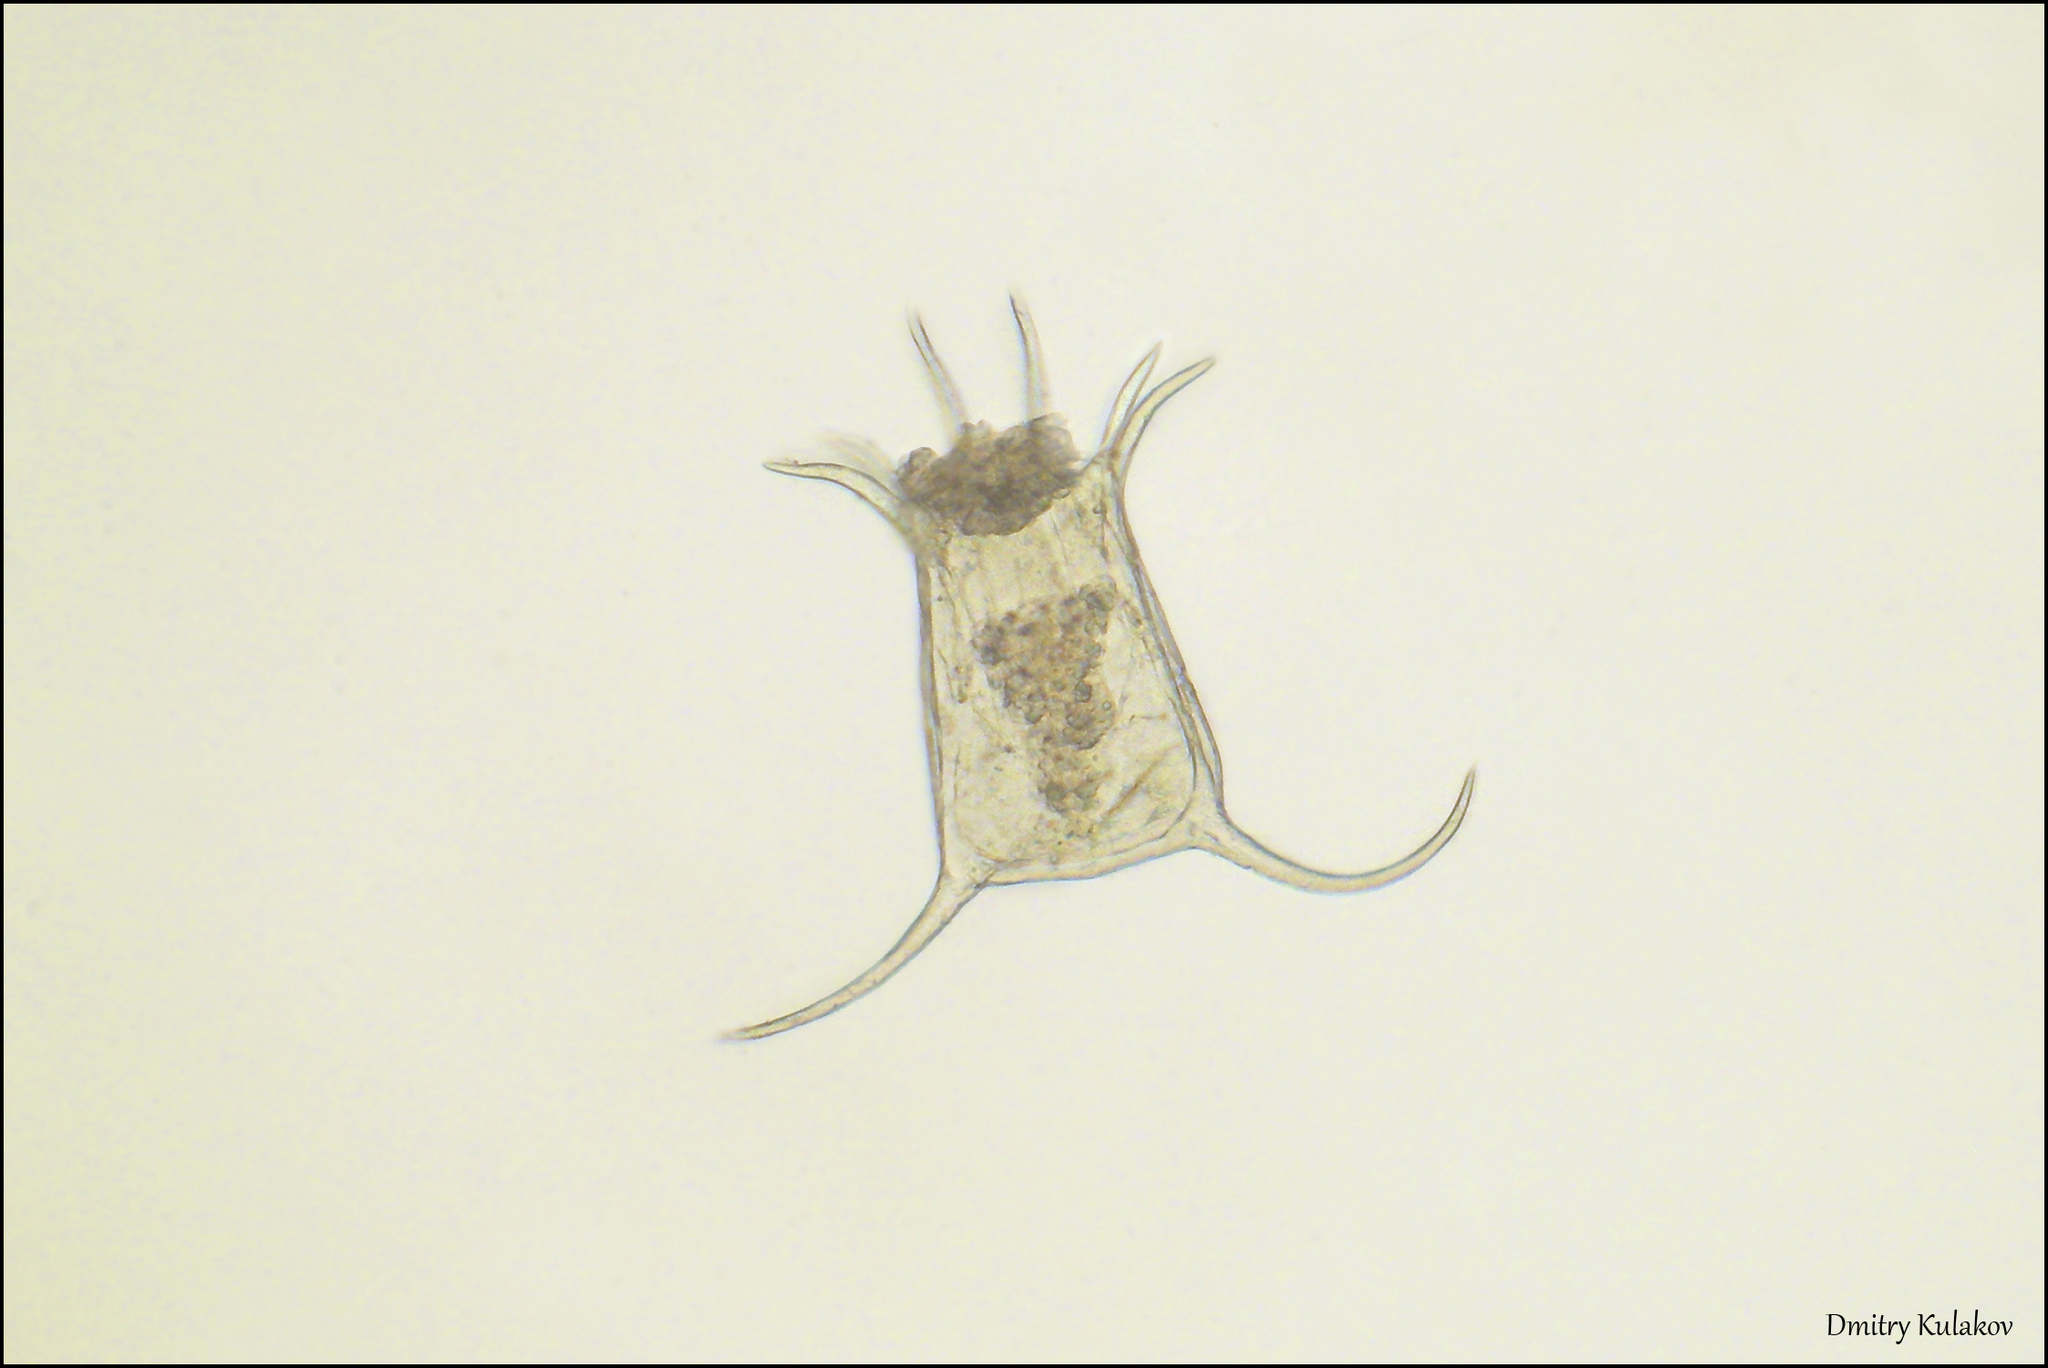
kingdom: Animalia
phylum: Rotifera
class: Eurotatoria
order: Ploima
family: Brachionidae
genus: Keratella
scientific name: Keratella quadrata
